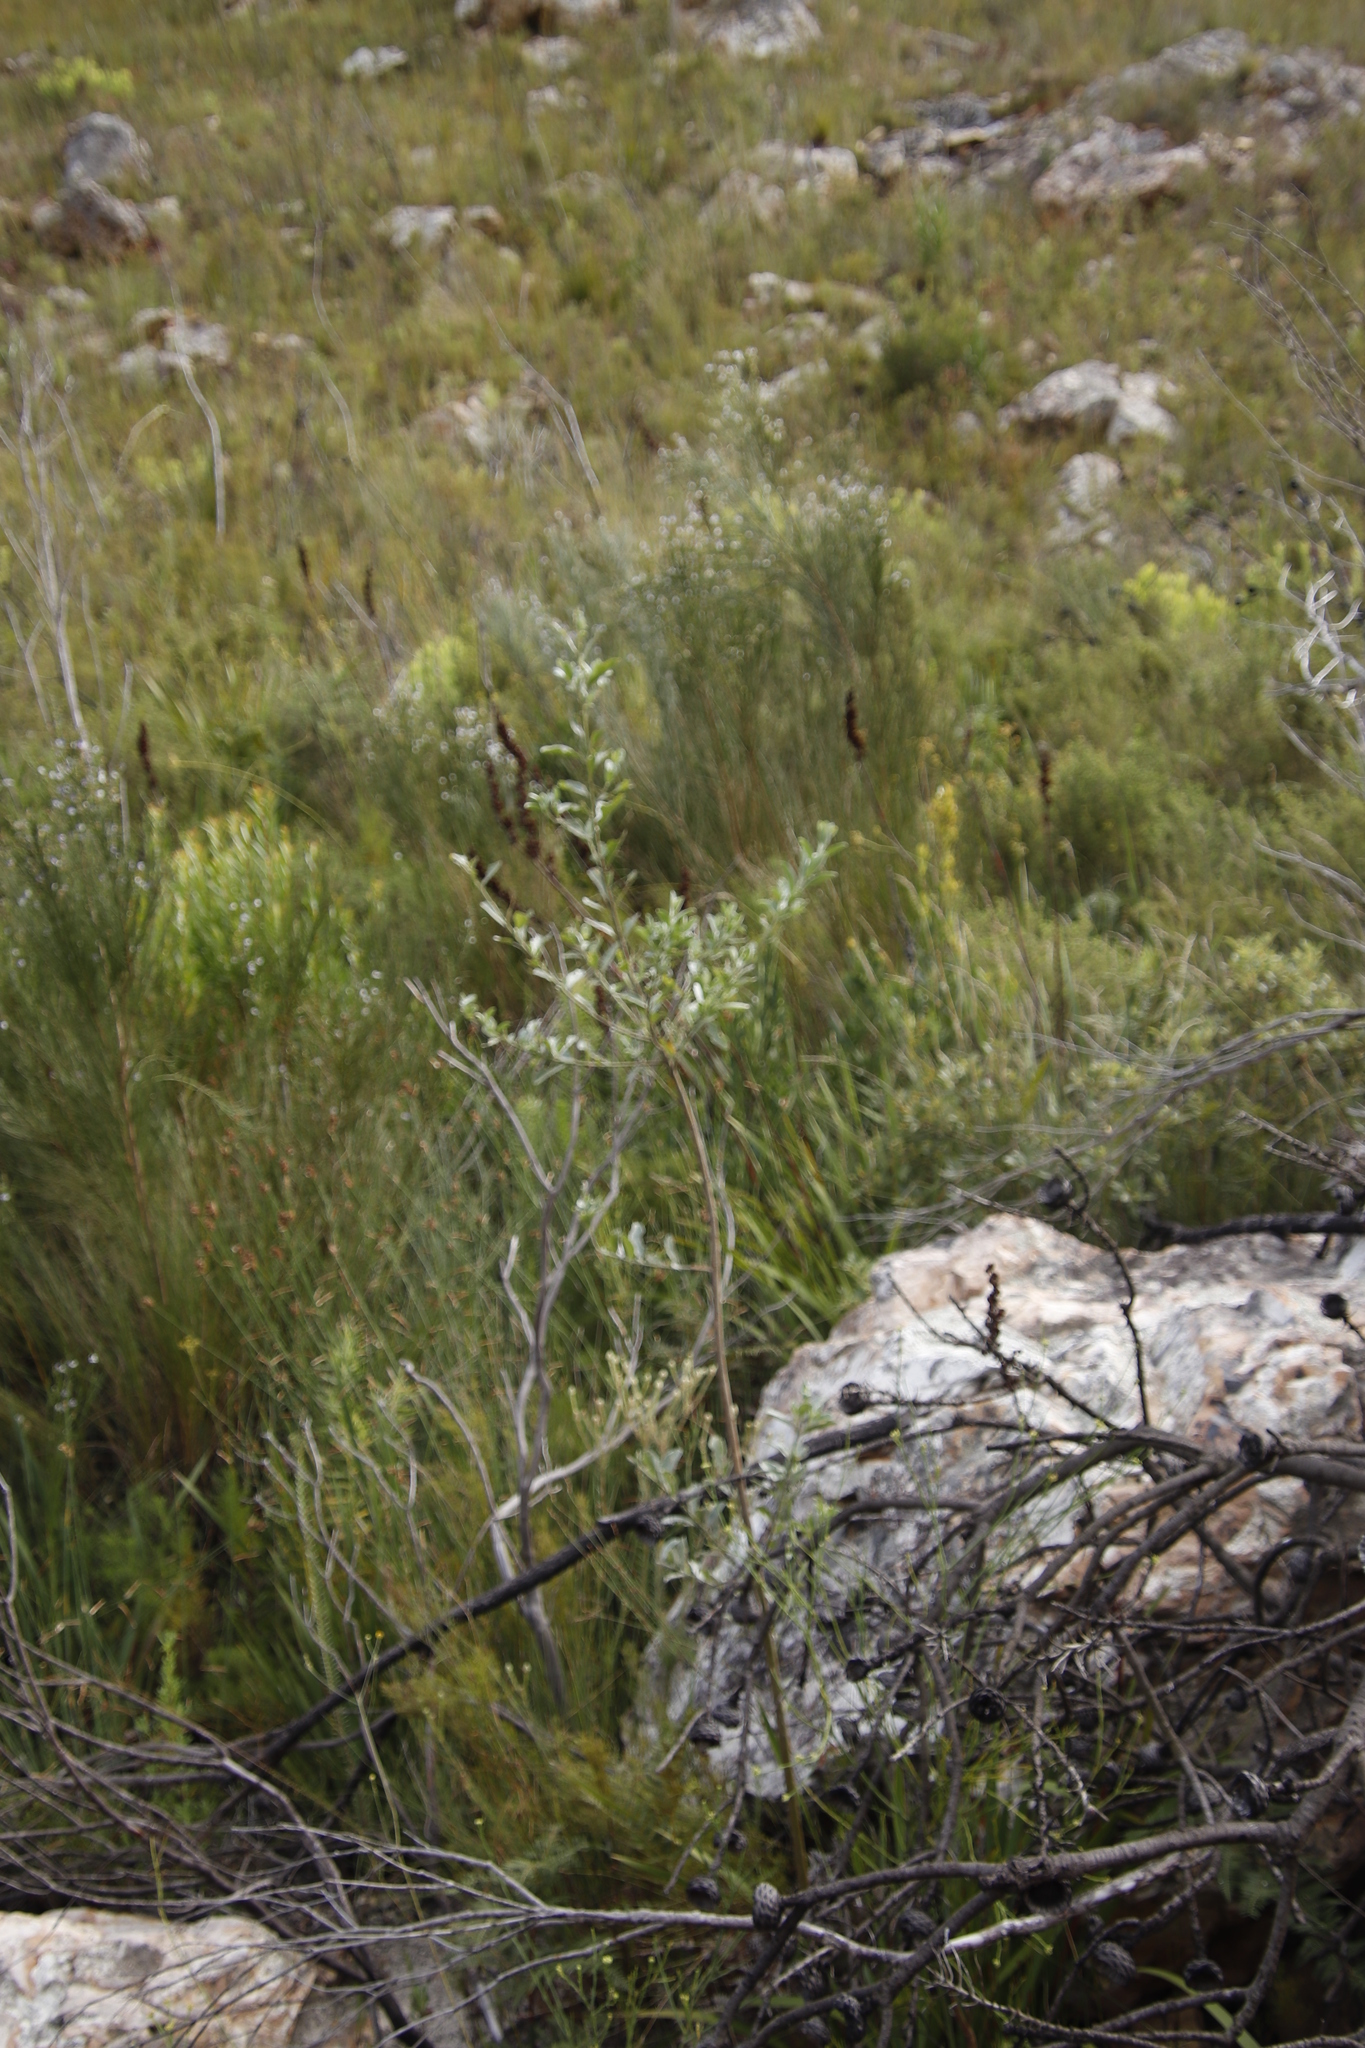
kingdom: Plantae
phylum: Tracheophyta
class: Magnoliopsida
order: Fabales
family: Fabaceae
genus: Podalyria
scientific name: Podalyria calyptrata
